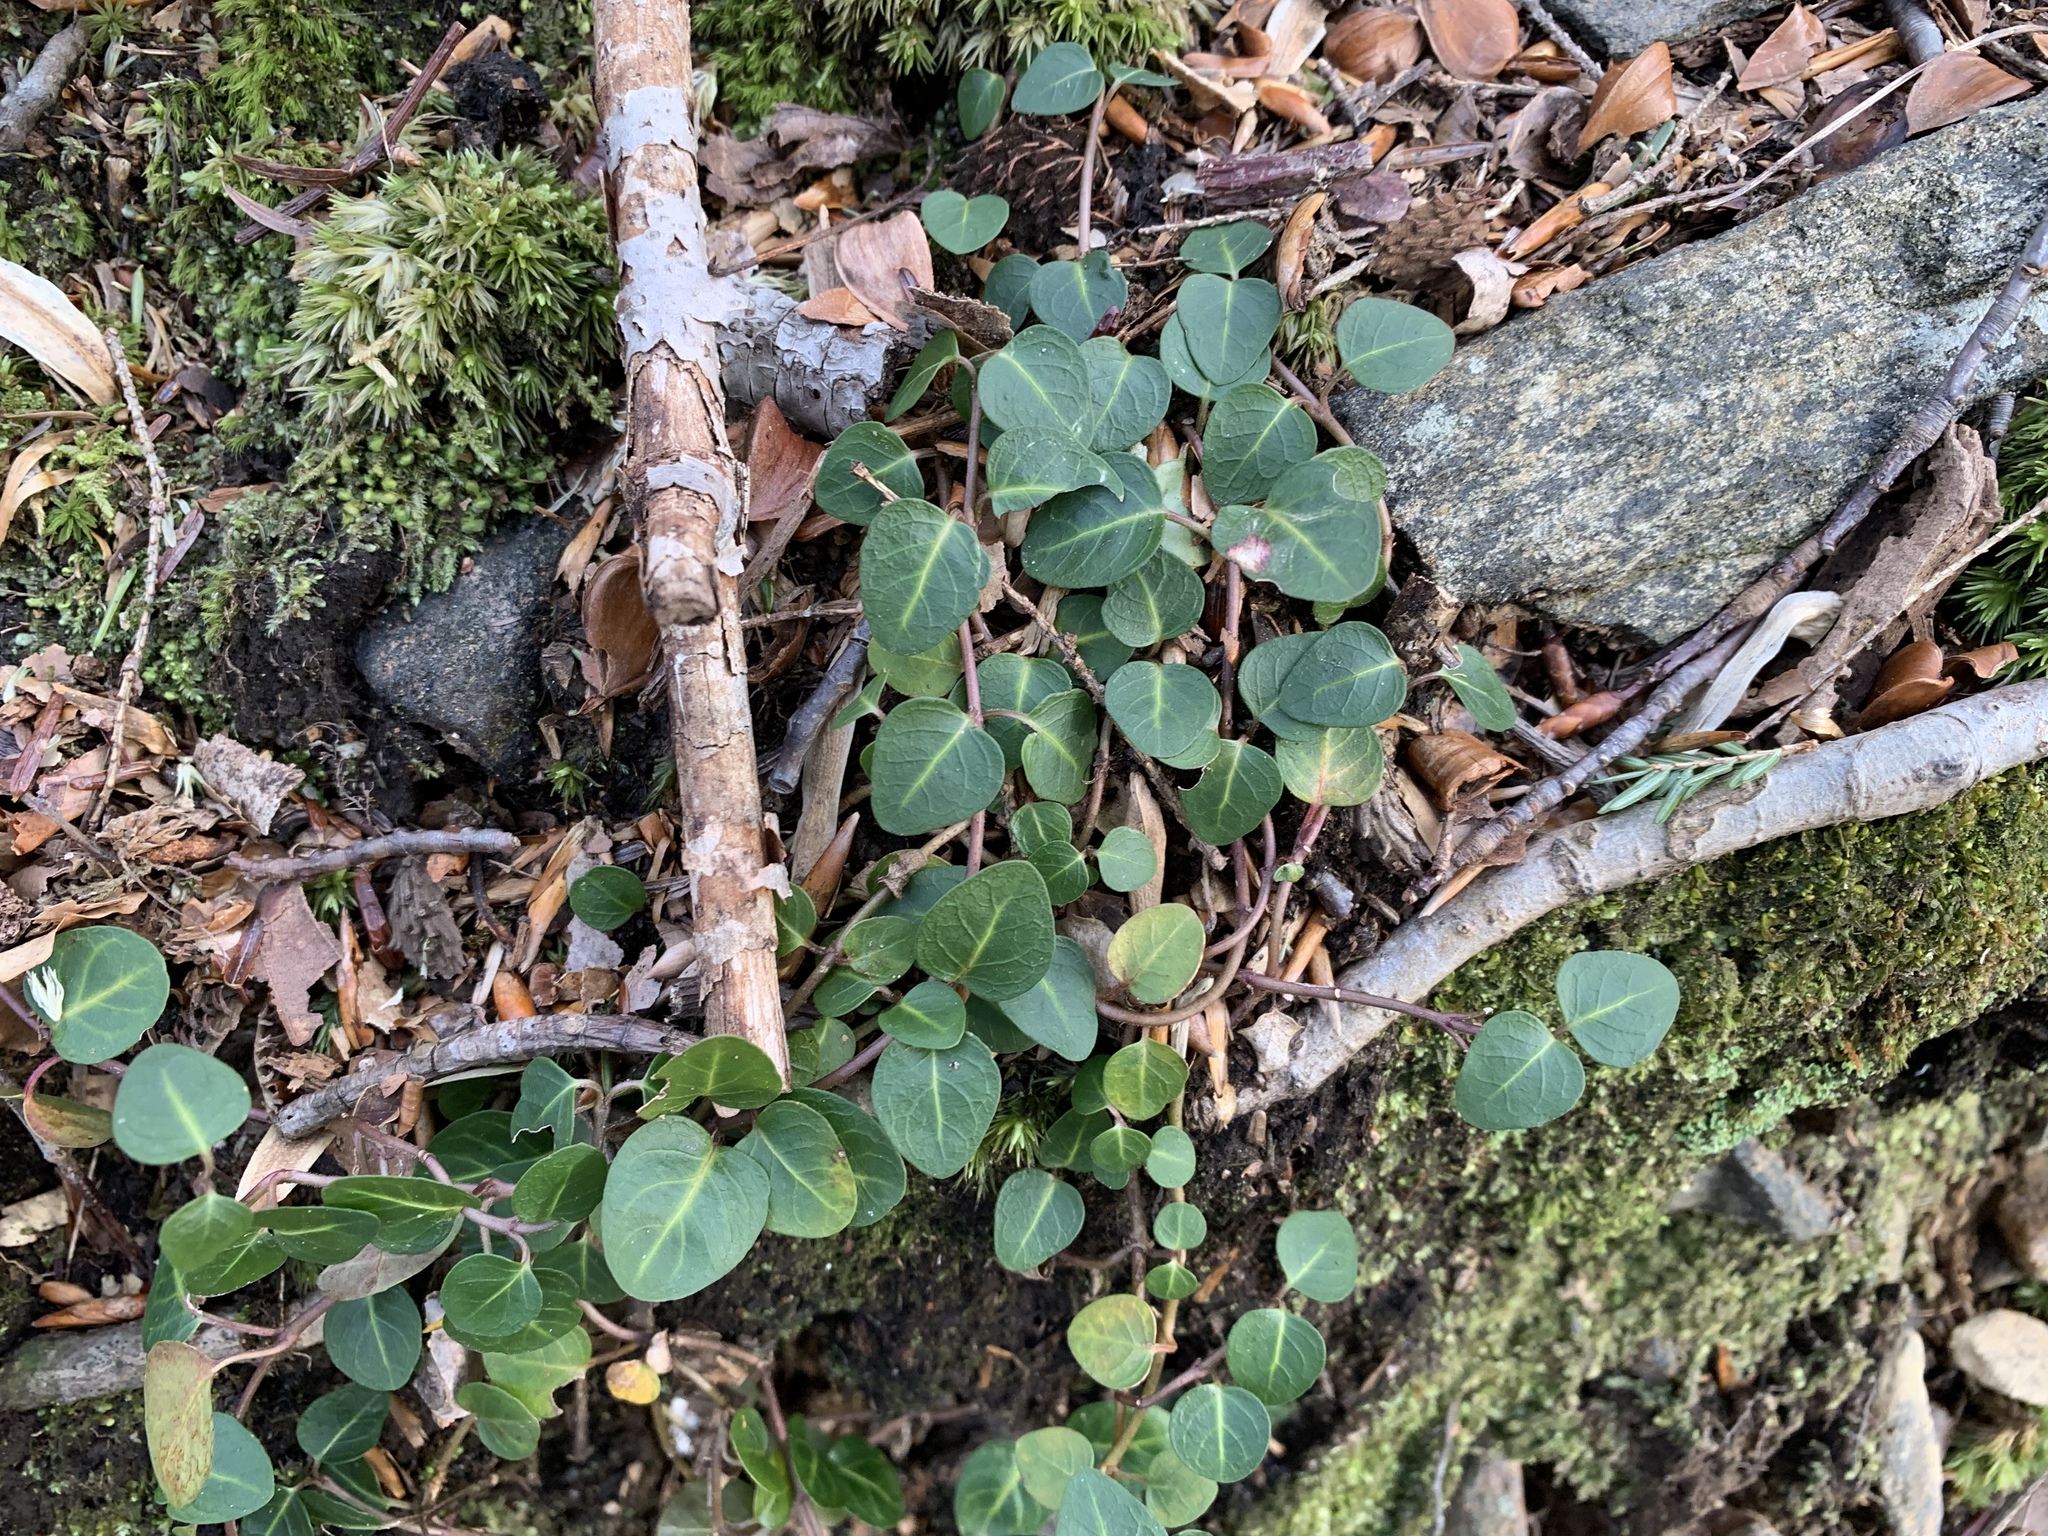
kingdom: Plantae
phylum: Tracheophyta
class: Magnoliopsida
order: Gentianales
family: Rubiaceae
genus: Mitchella
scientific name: Mitchella repens
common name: Partridge-berry
